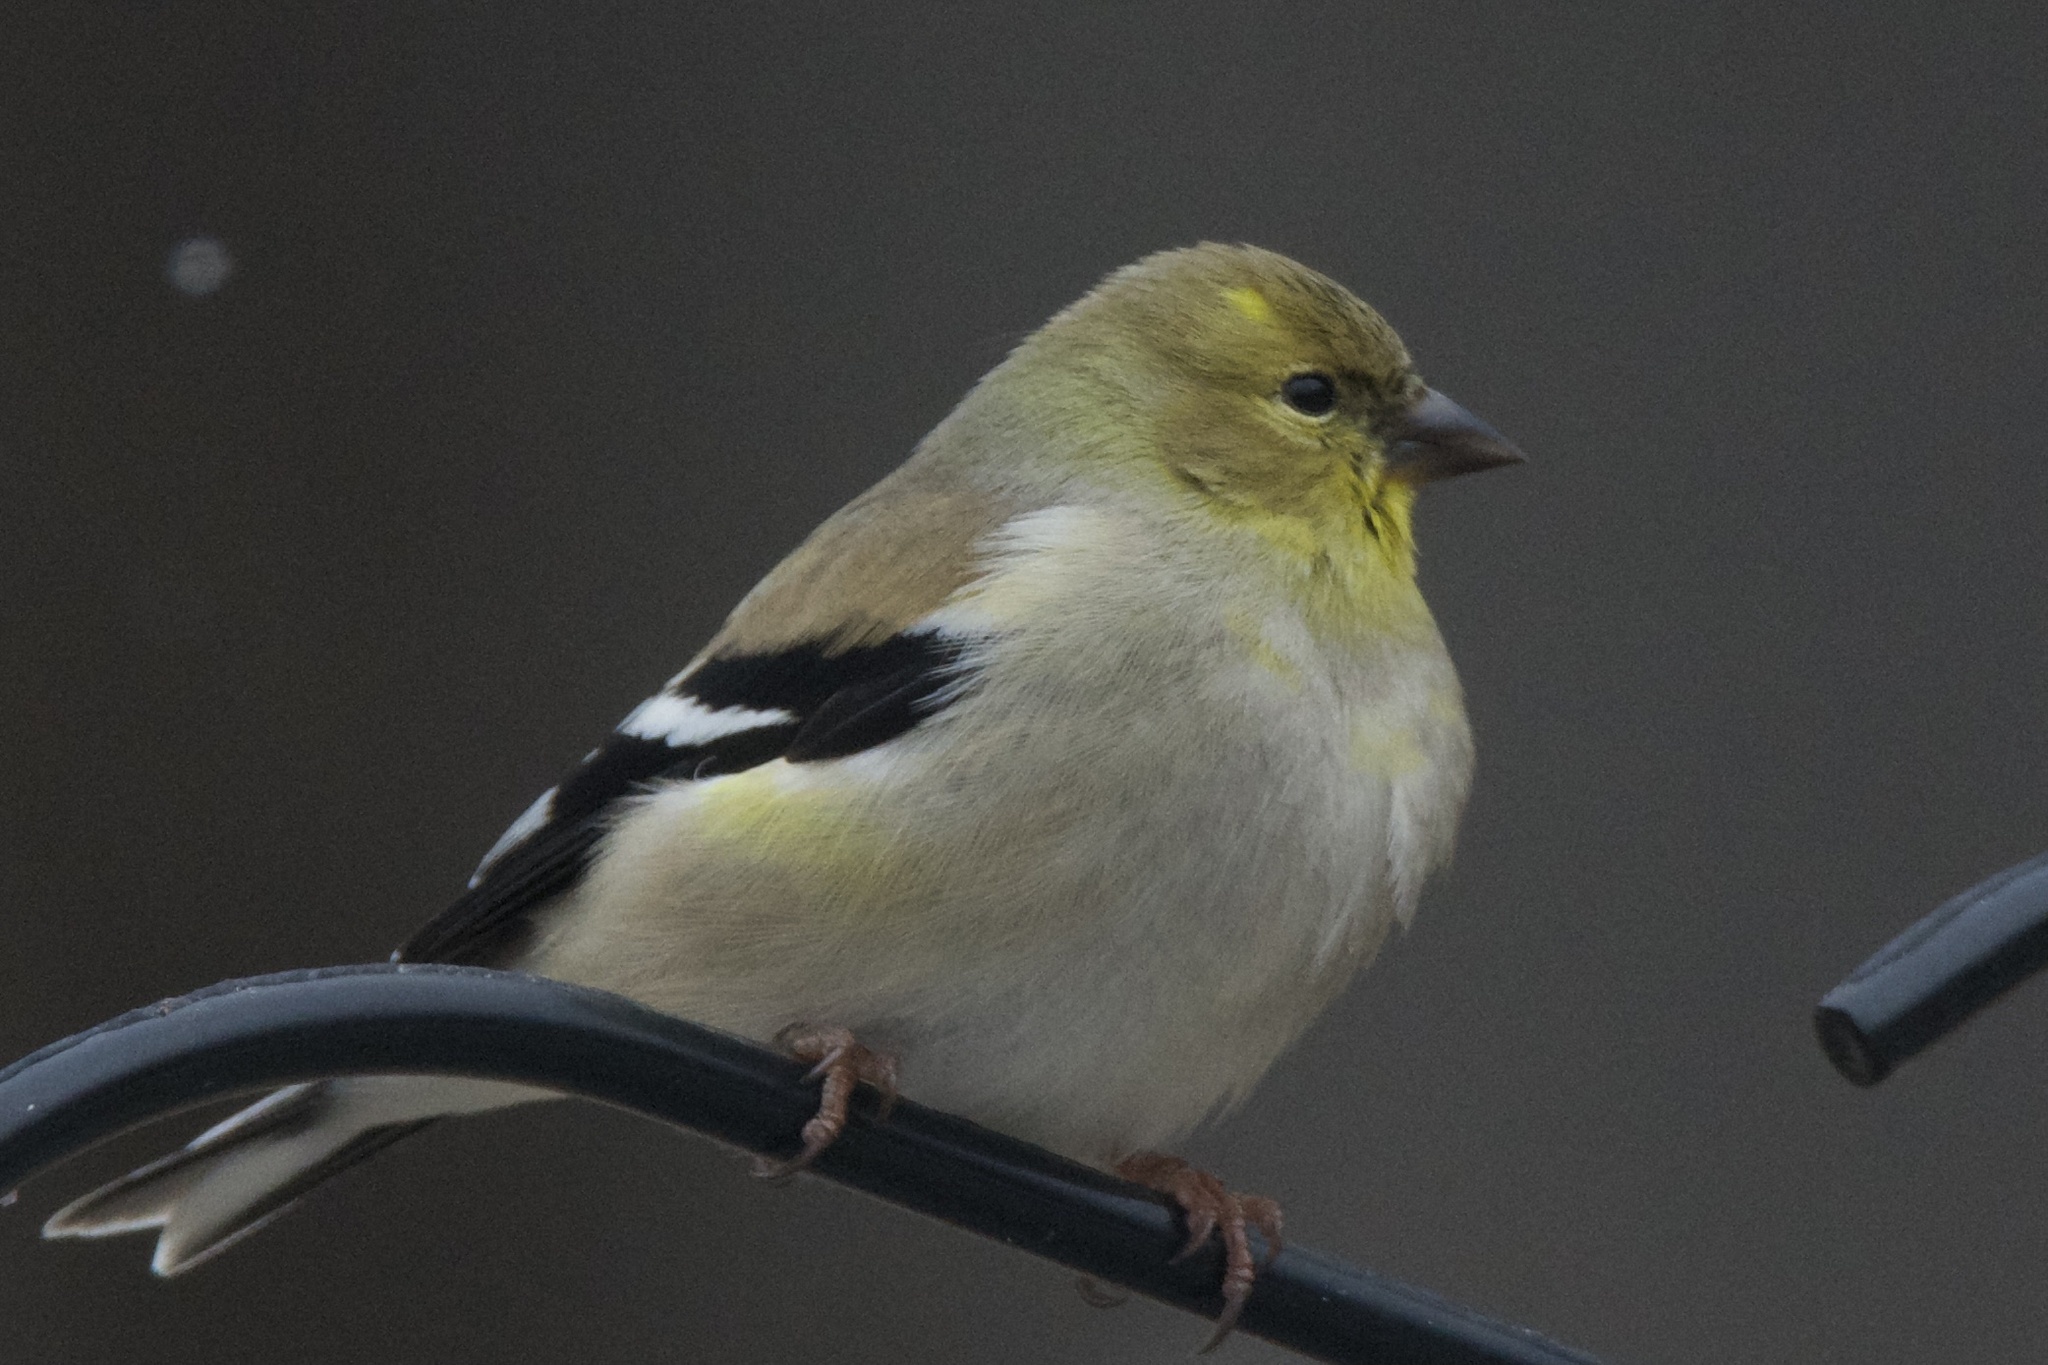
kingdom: Animalia
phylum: Chordata
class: Aves
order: Passeriformes
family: Fringillidae
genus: Spinus
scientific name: Spinus tristis
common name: American goldfinch
